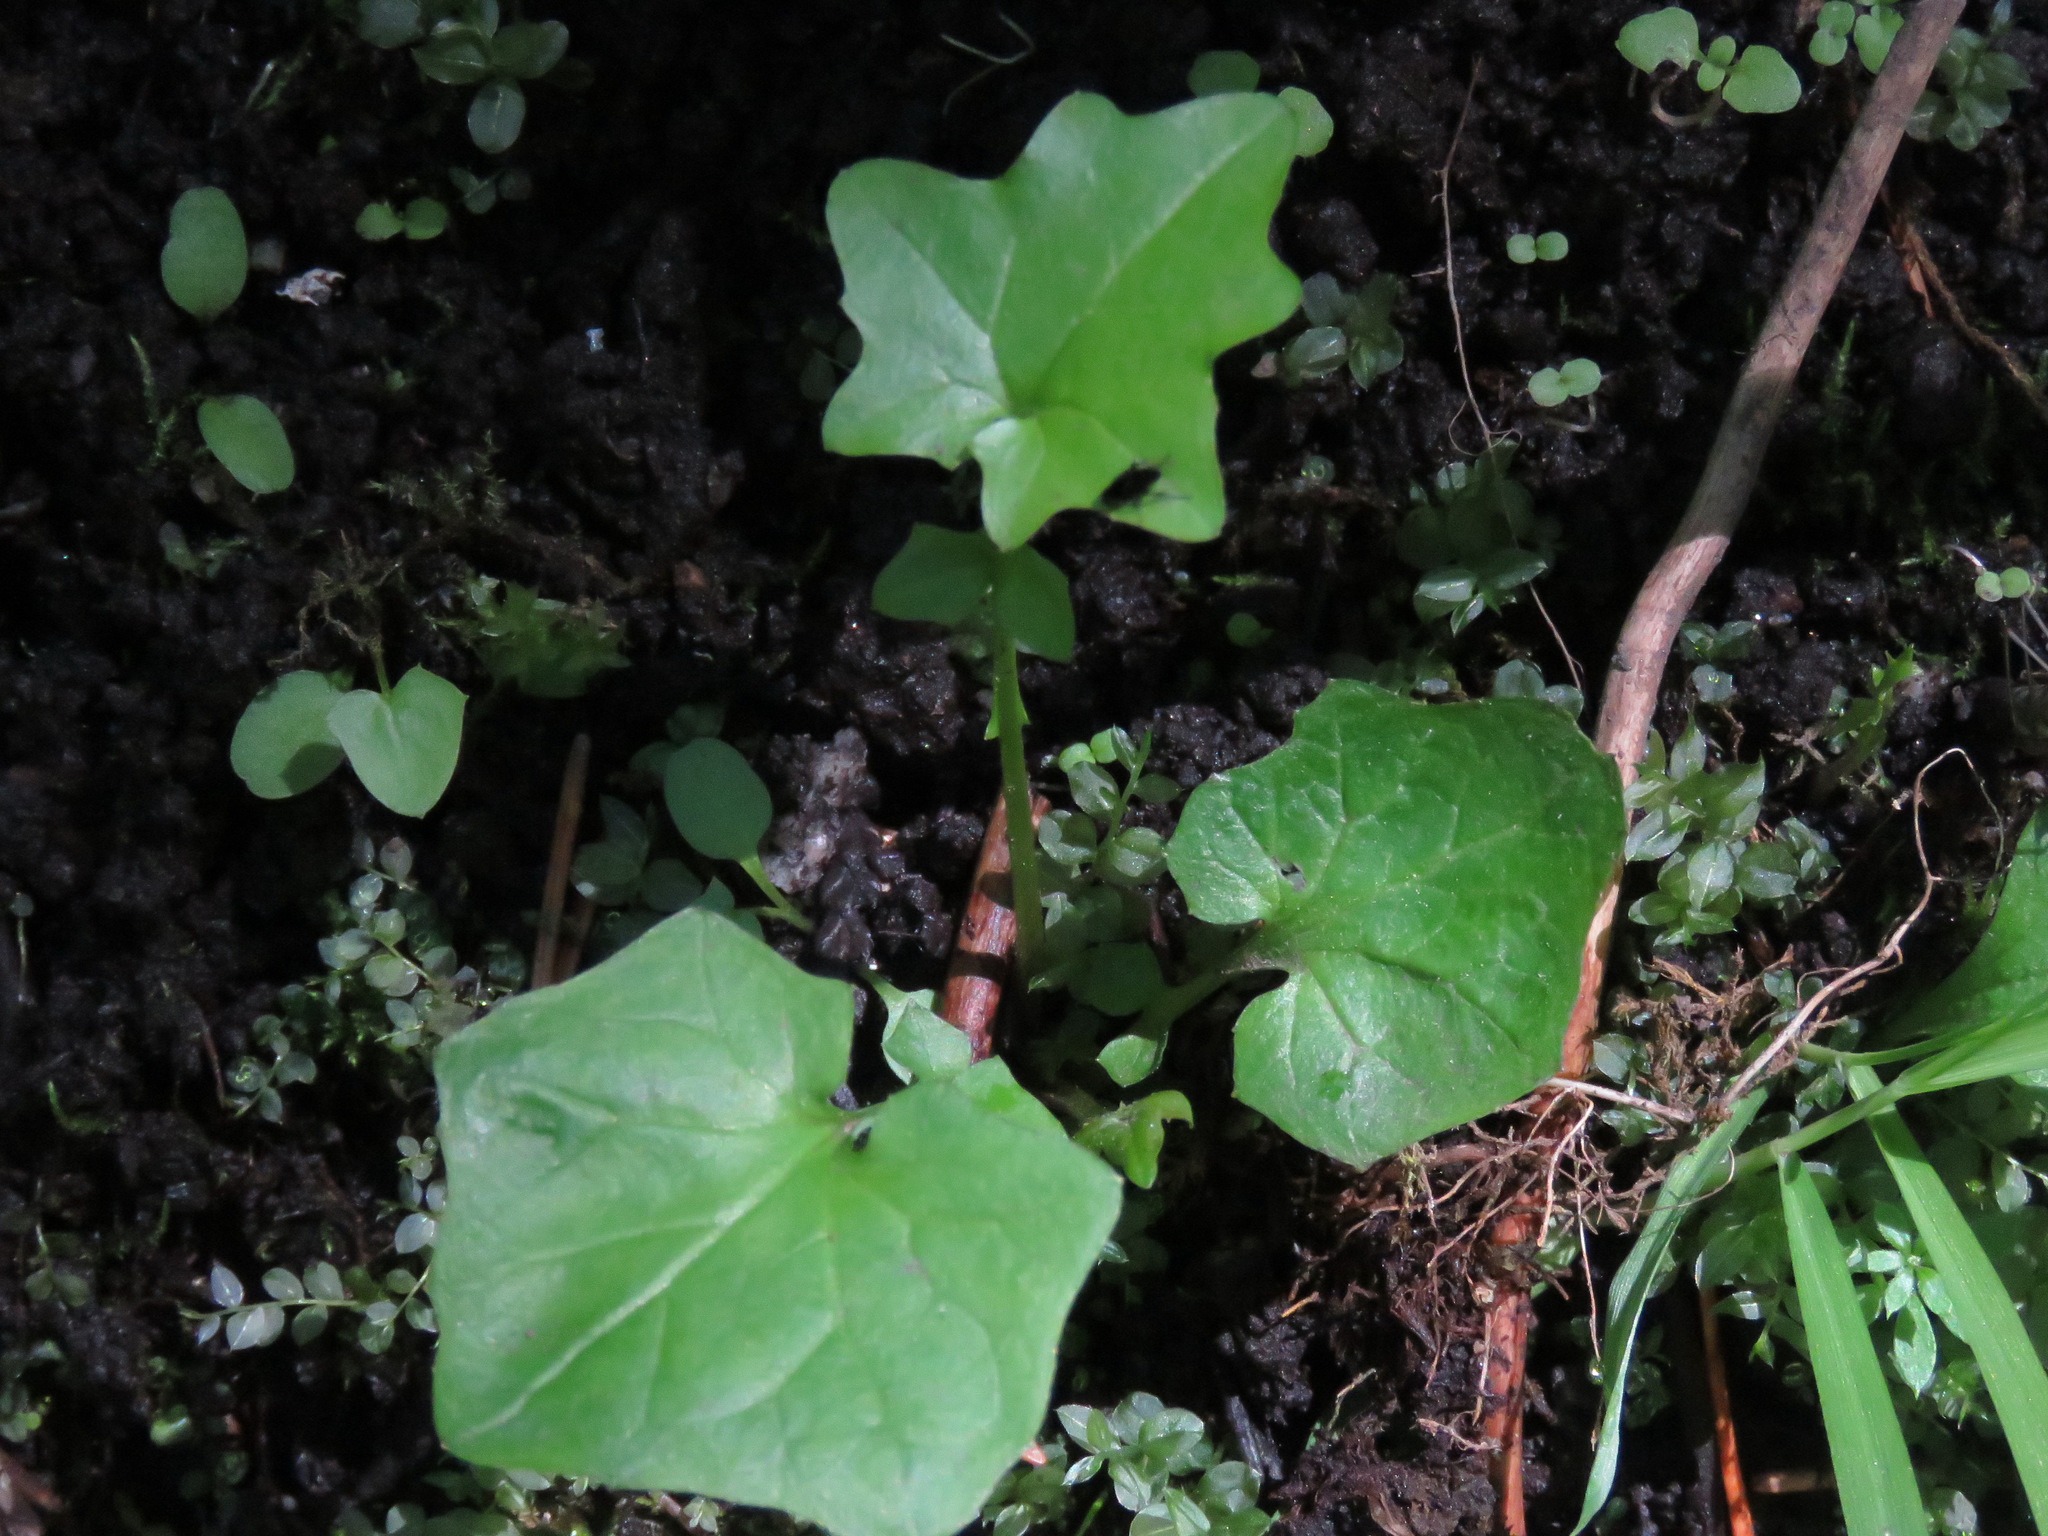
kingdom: Plantae
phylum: Tracheophyta
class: Magnoliopsida
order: Asterales
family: Asteraceae
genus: Mycelis
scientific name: Mycelis muralis
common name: Wall lettuce
